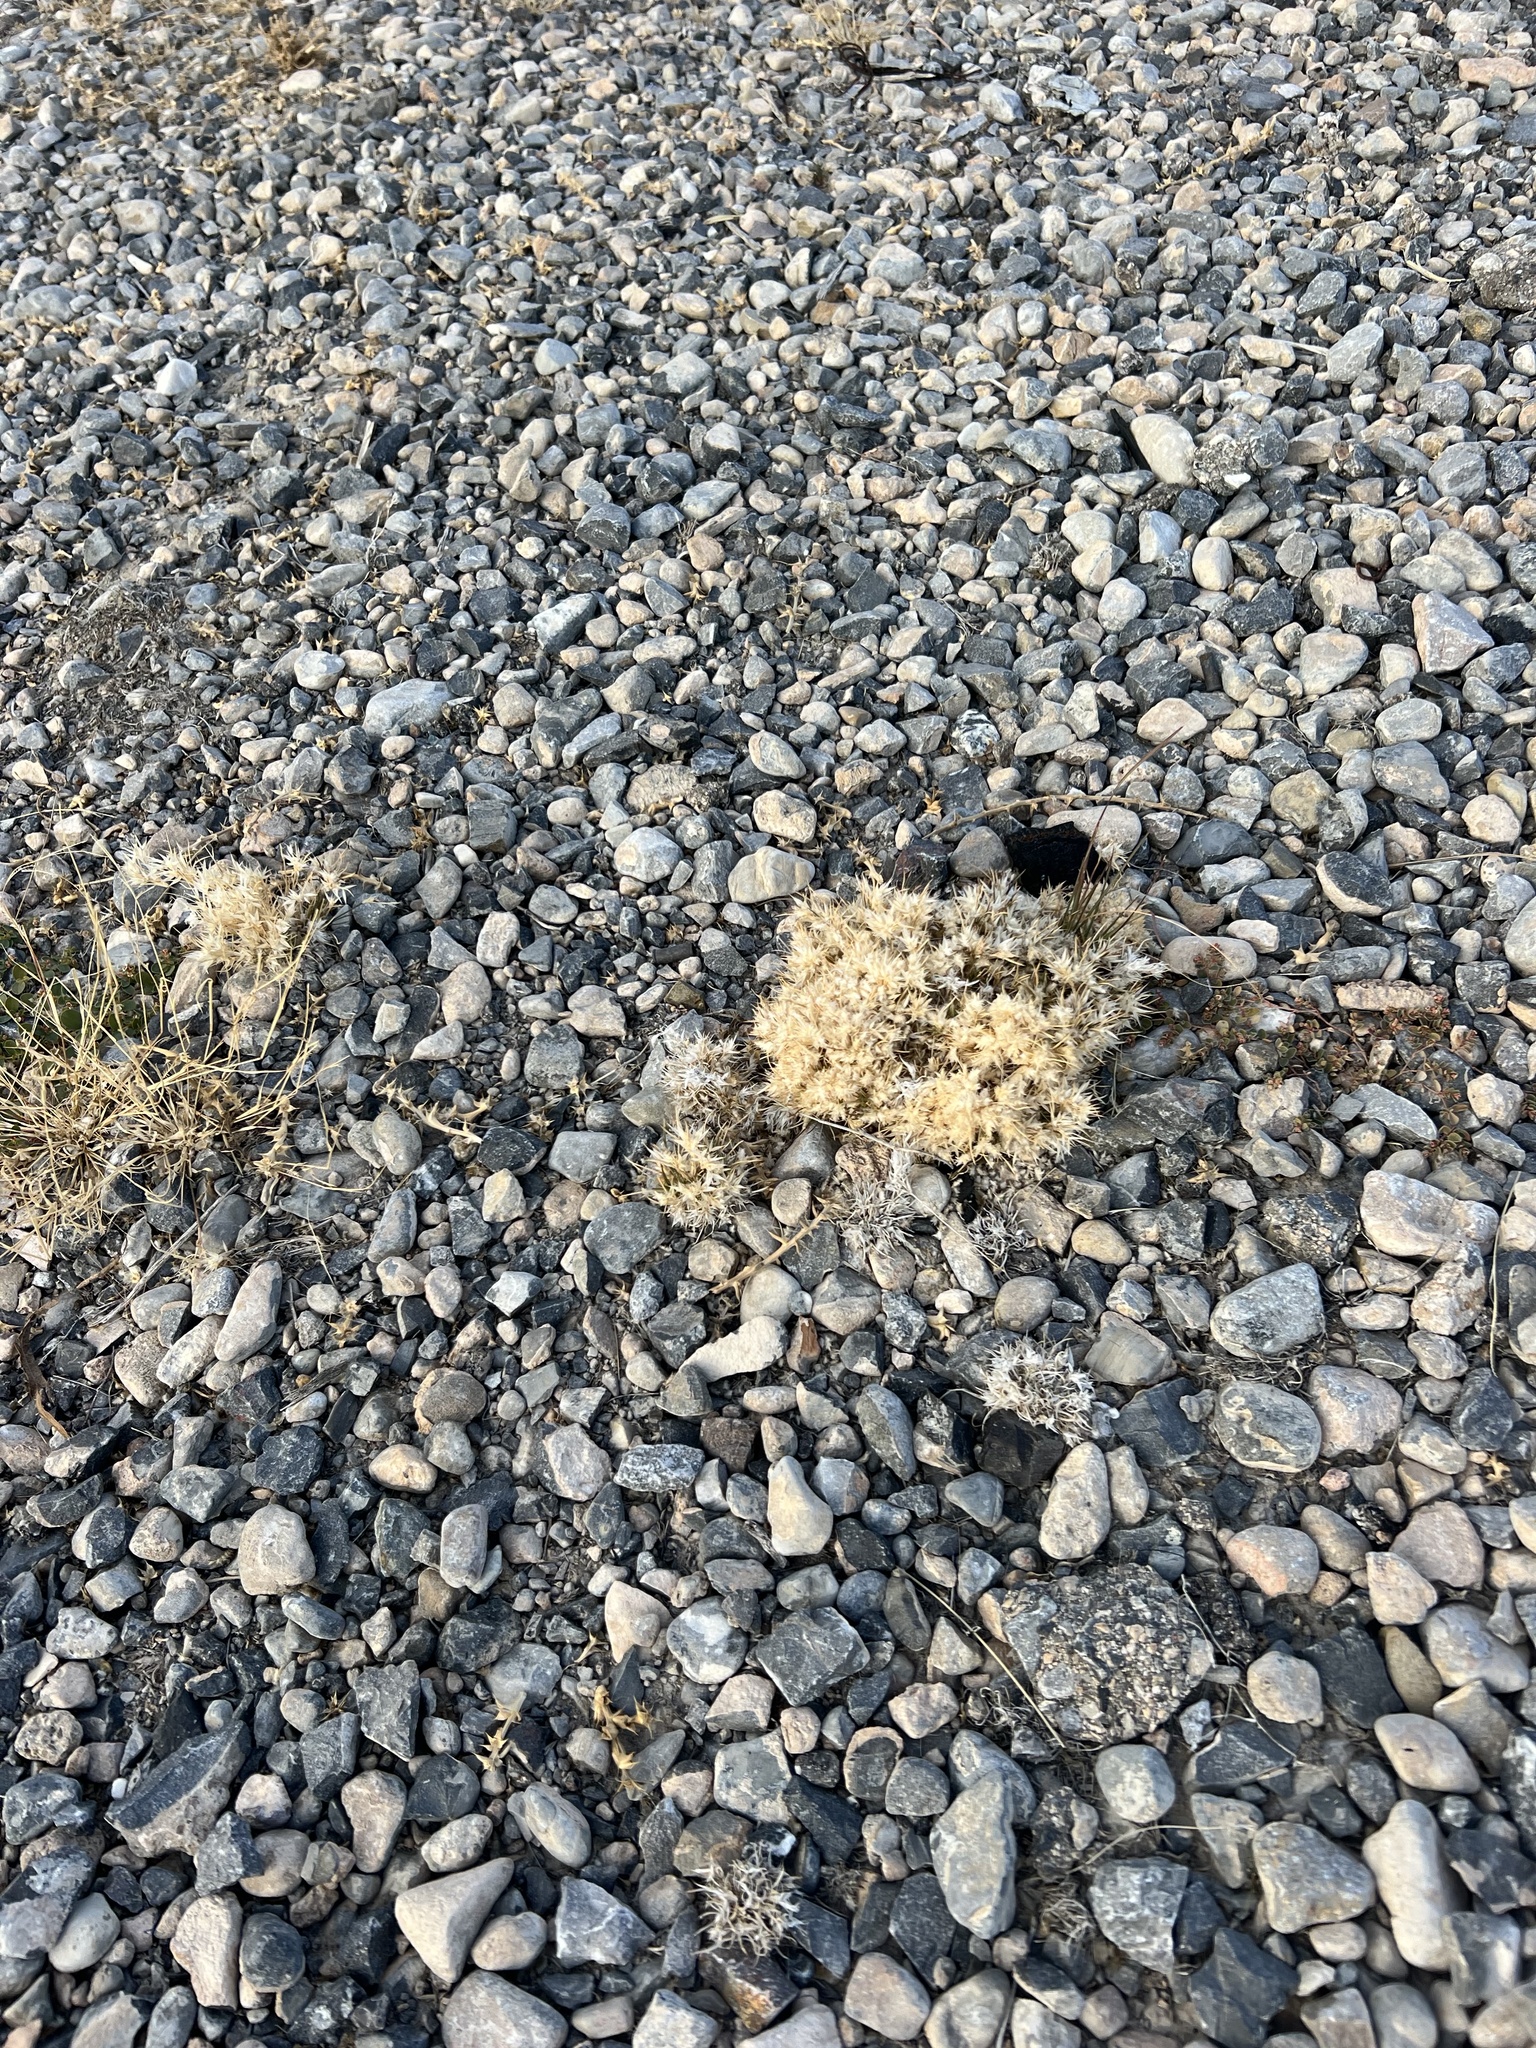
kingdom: Plantae
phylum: Tracheophyta
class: Liliopsida
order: Poales
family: Poaceae
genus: Dasyochloa
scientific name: Dasyochloa pulchella
